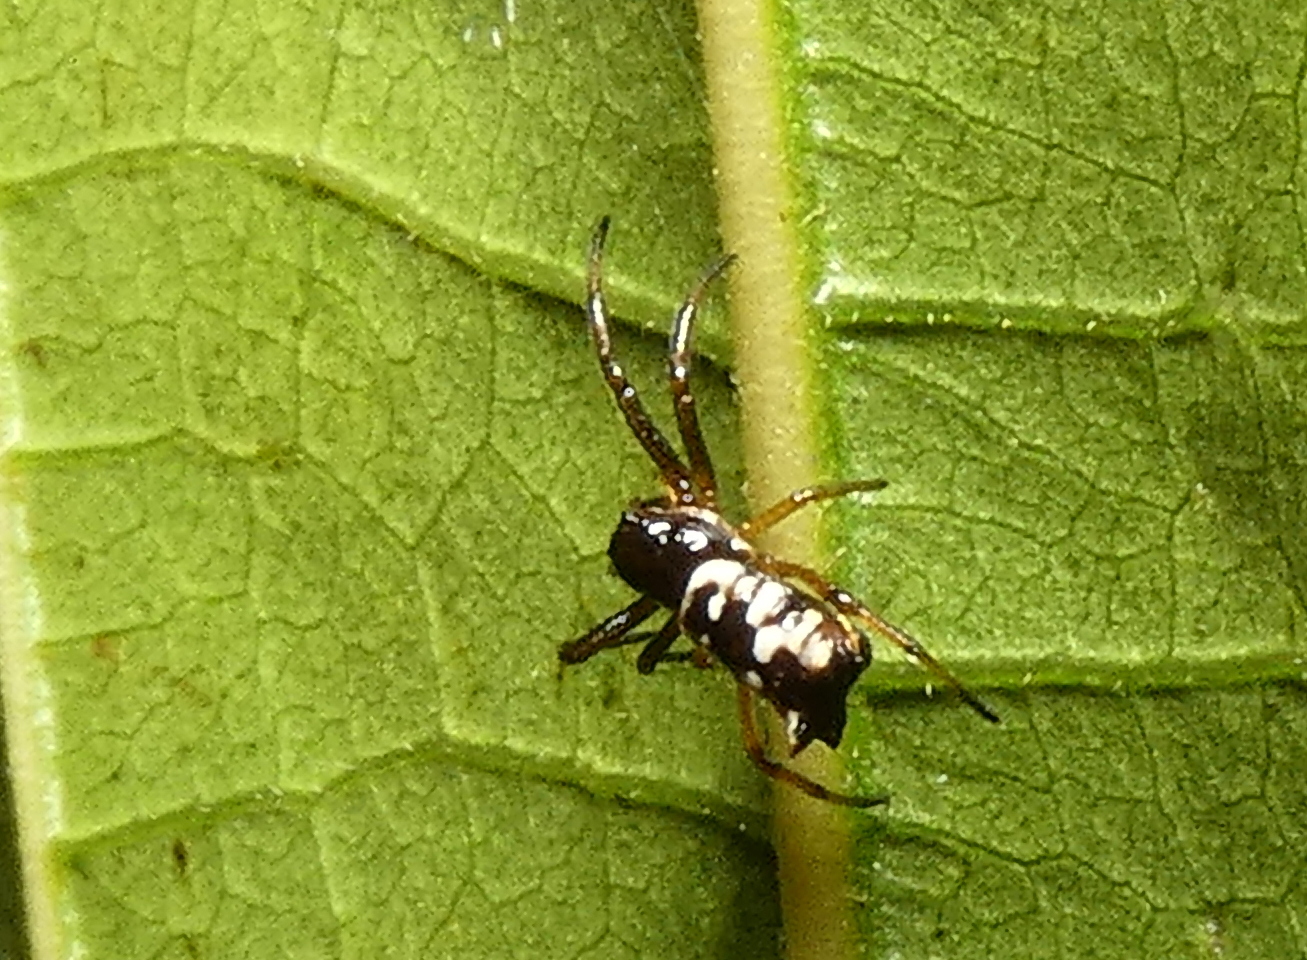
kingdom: Animalia
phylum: Arthropoda
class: Arachnida
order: Araneae
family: Araneidae
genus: Micrathena
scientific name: Micrathena patruelis
